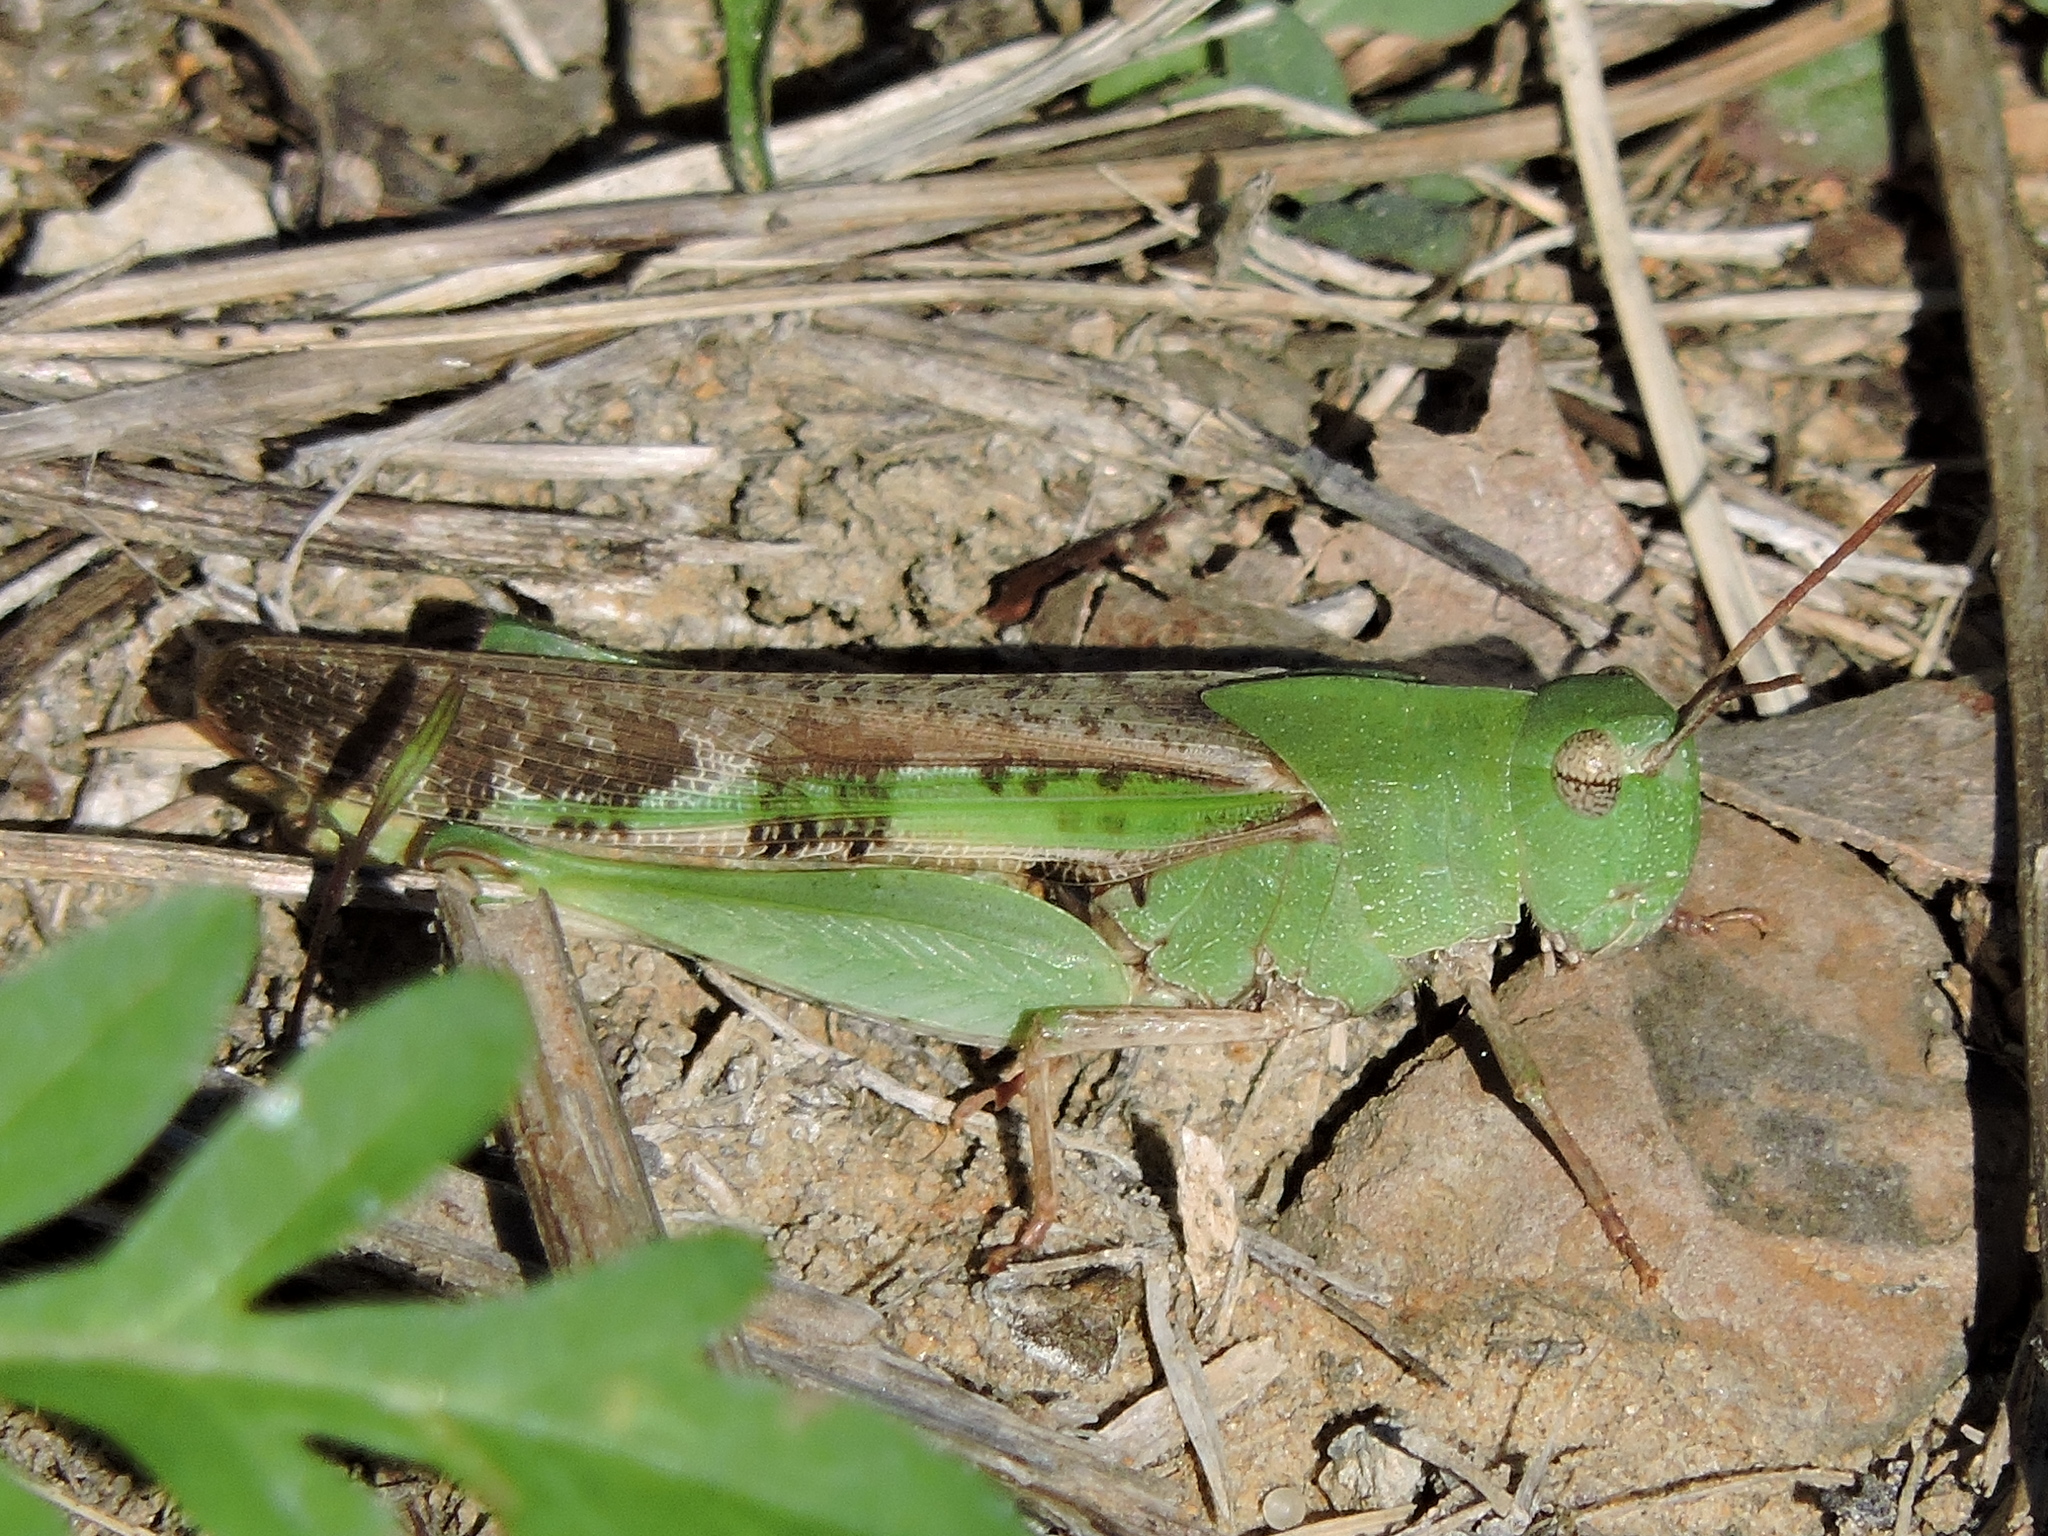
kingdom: Animalia
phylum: Arthropoda
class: Insecta
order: Orthoptera
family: Acrididae
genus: Chortophaga
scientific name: Chortophaga viridifasciata
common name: Green-striped grasshopper
